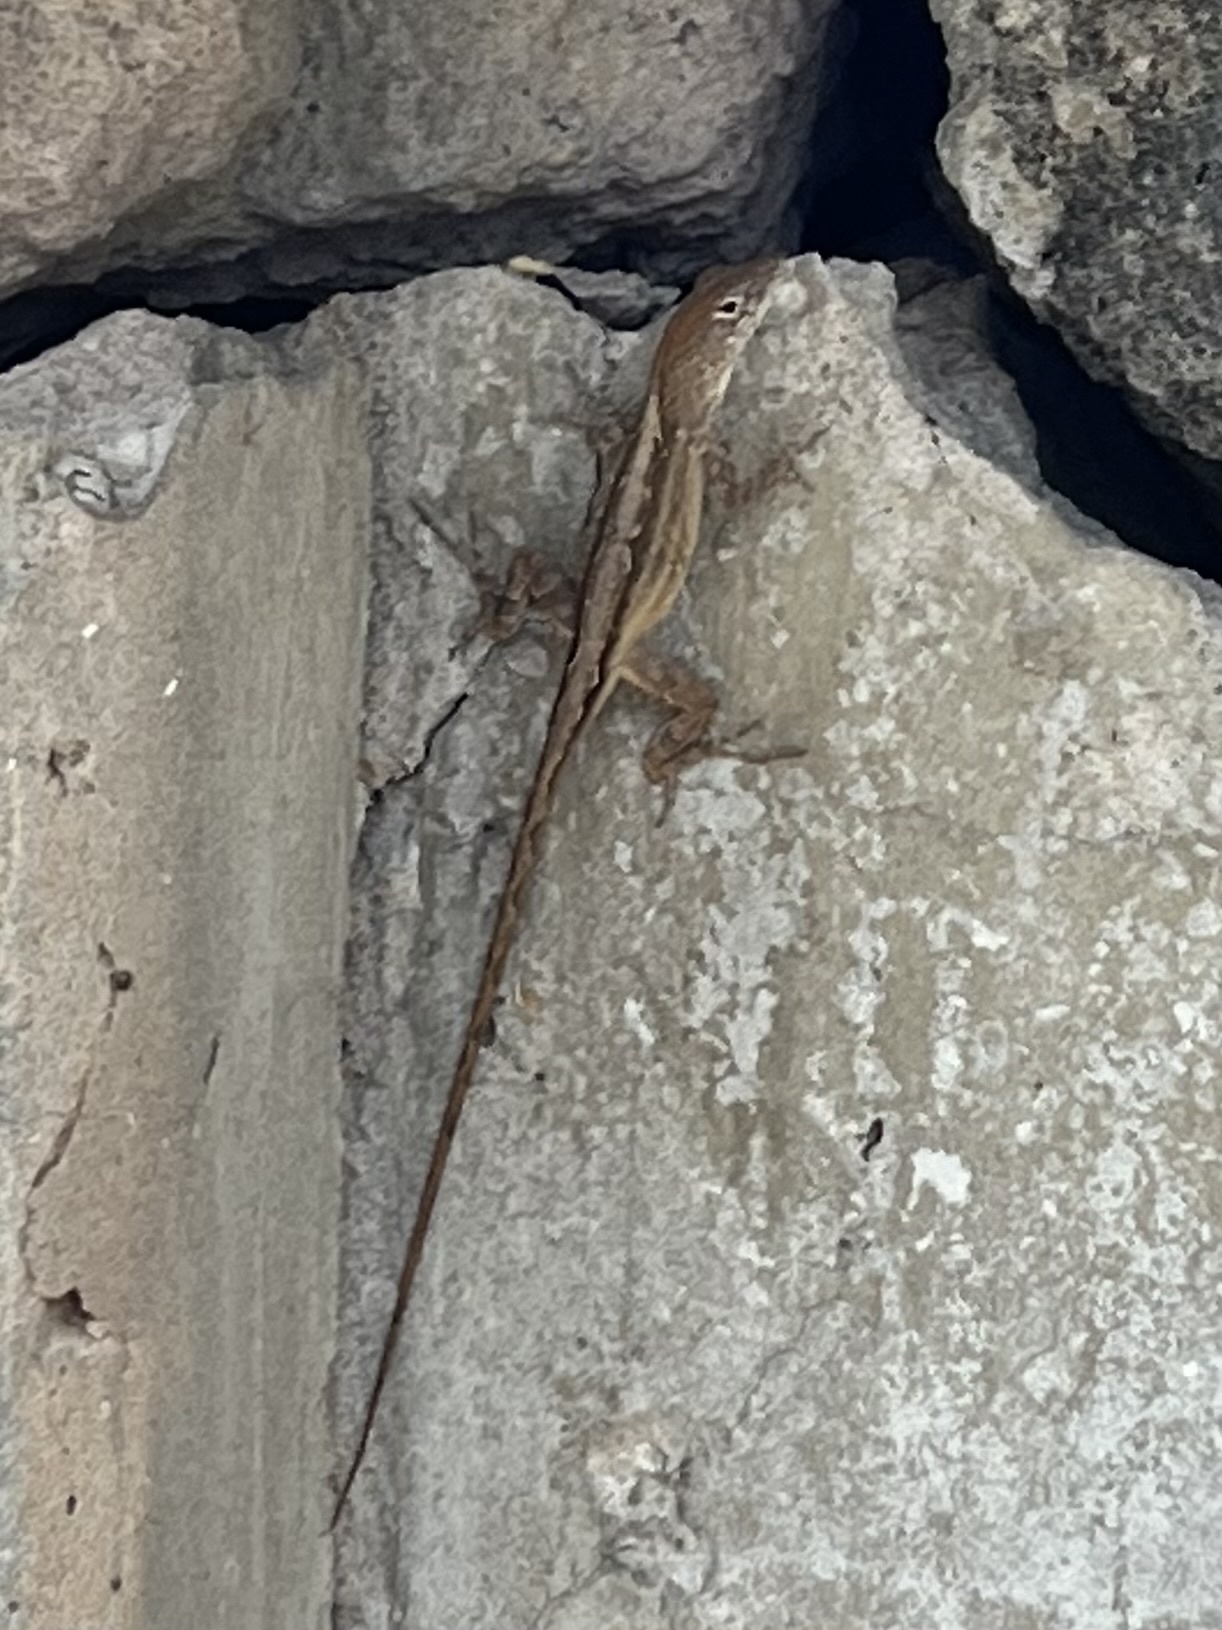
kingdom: Animalia
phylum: Chordata
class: Squamata
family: Dactyloidae
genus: Anolis
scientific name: Anolis sagrei
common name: Brown anole
